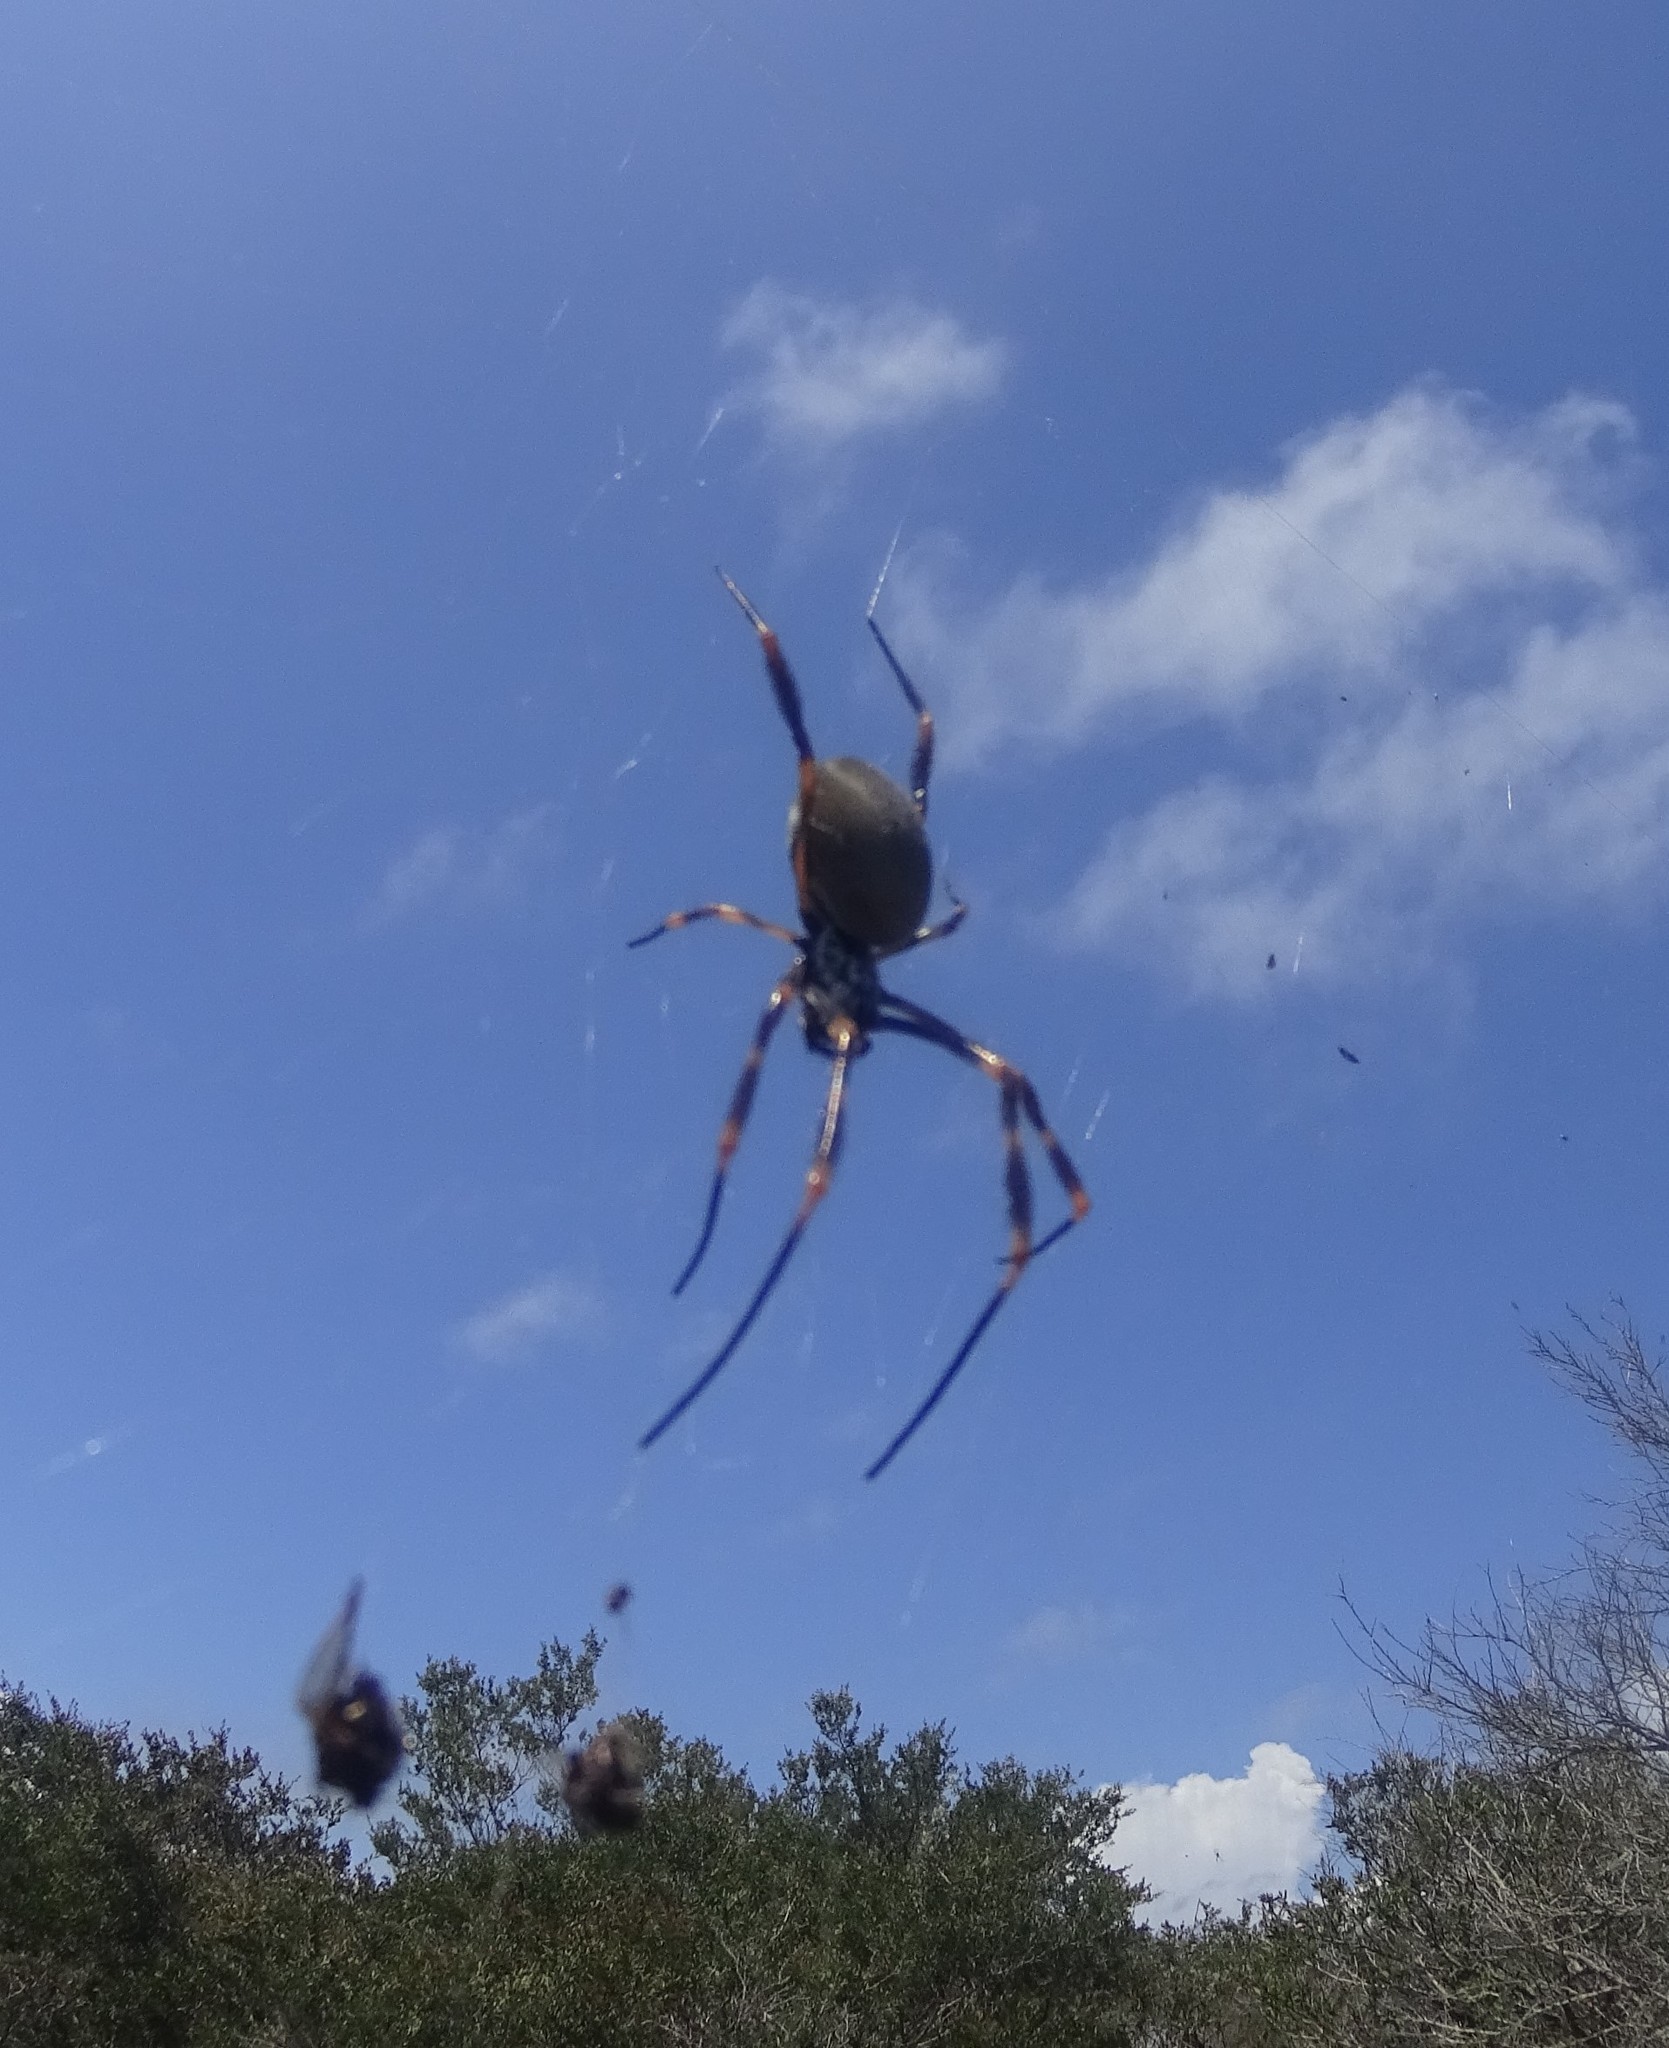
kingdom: Animalia
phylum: Arthropoda
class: Arachnida
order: Araneae
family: Araneidae
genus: Trichonephila
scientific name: Trichonephila plumipes
